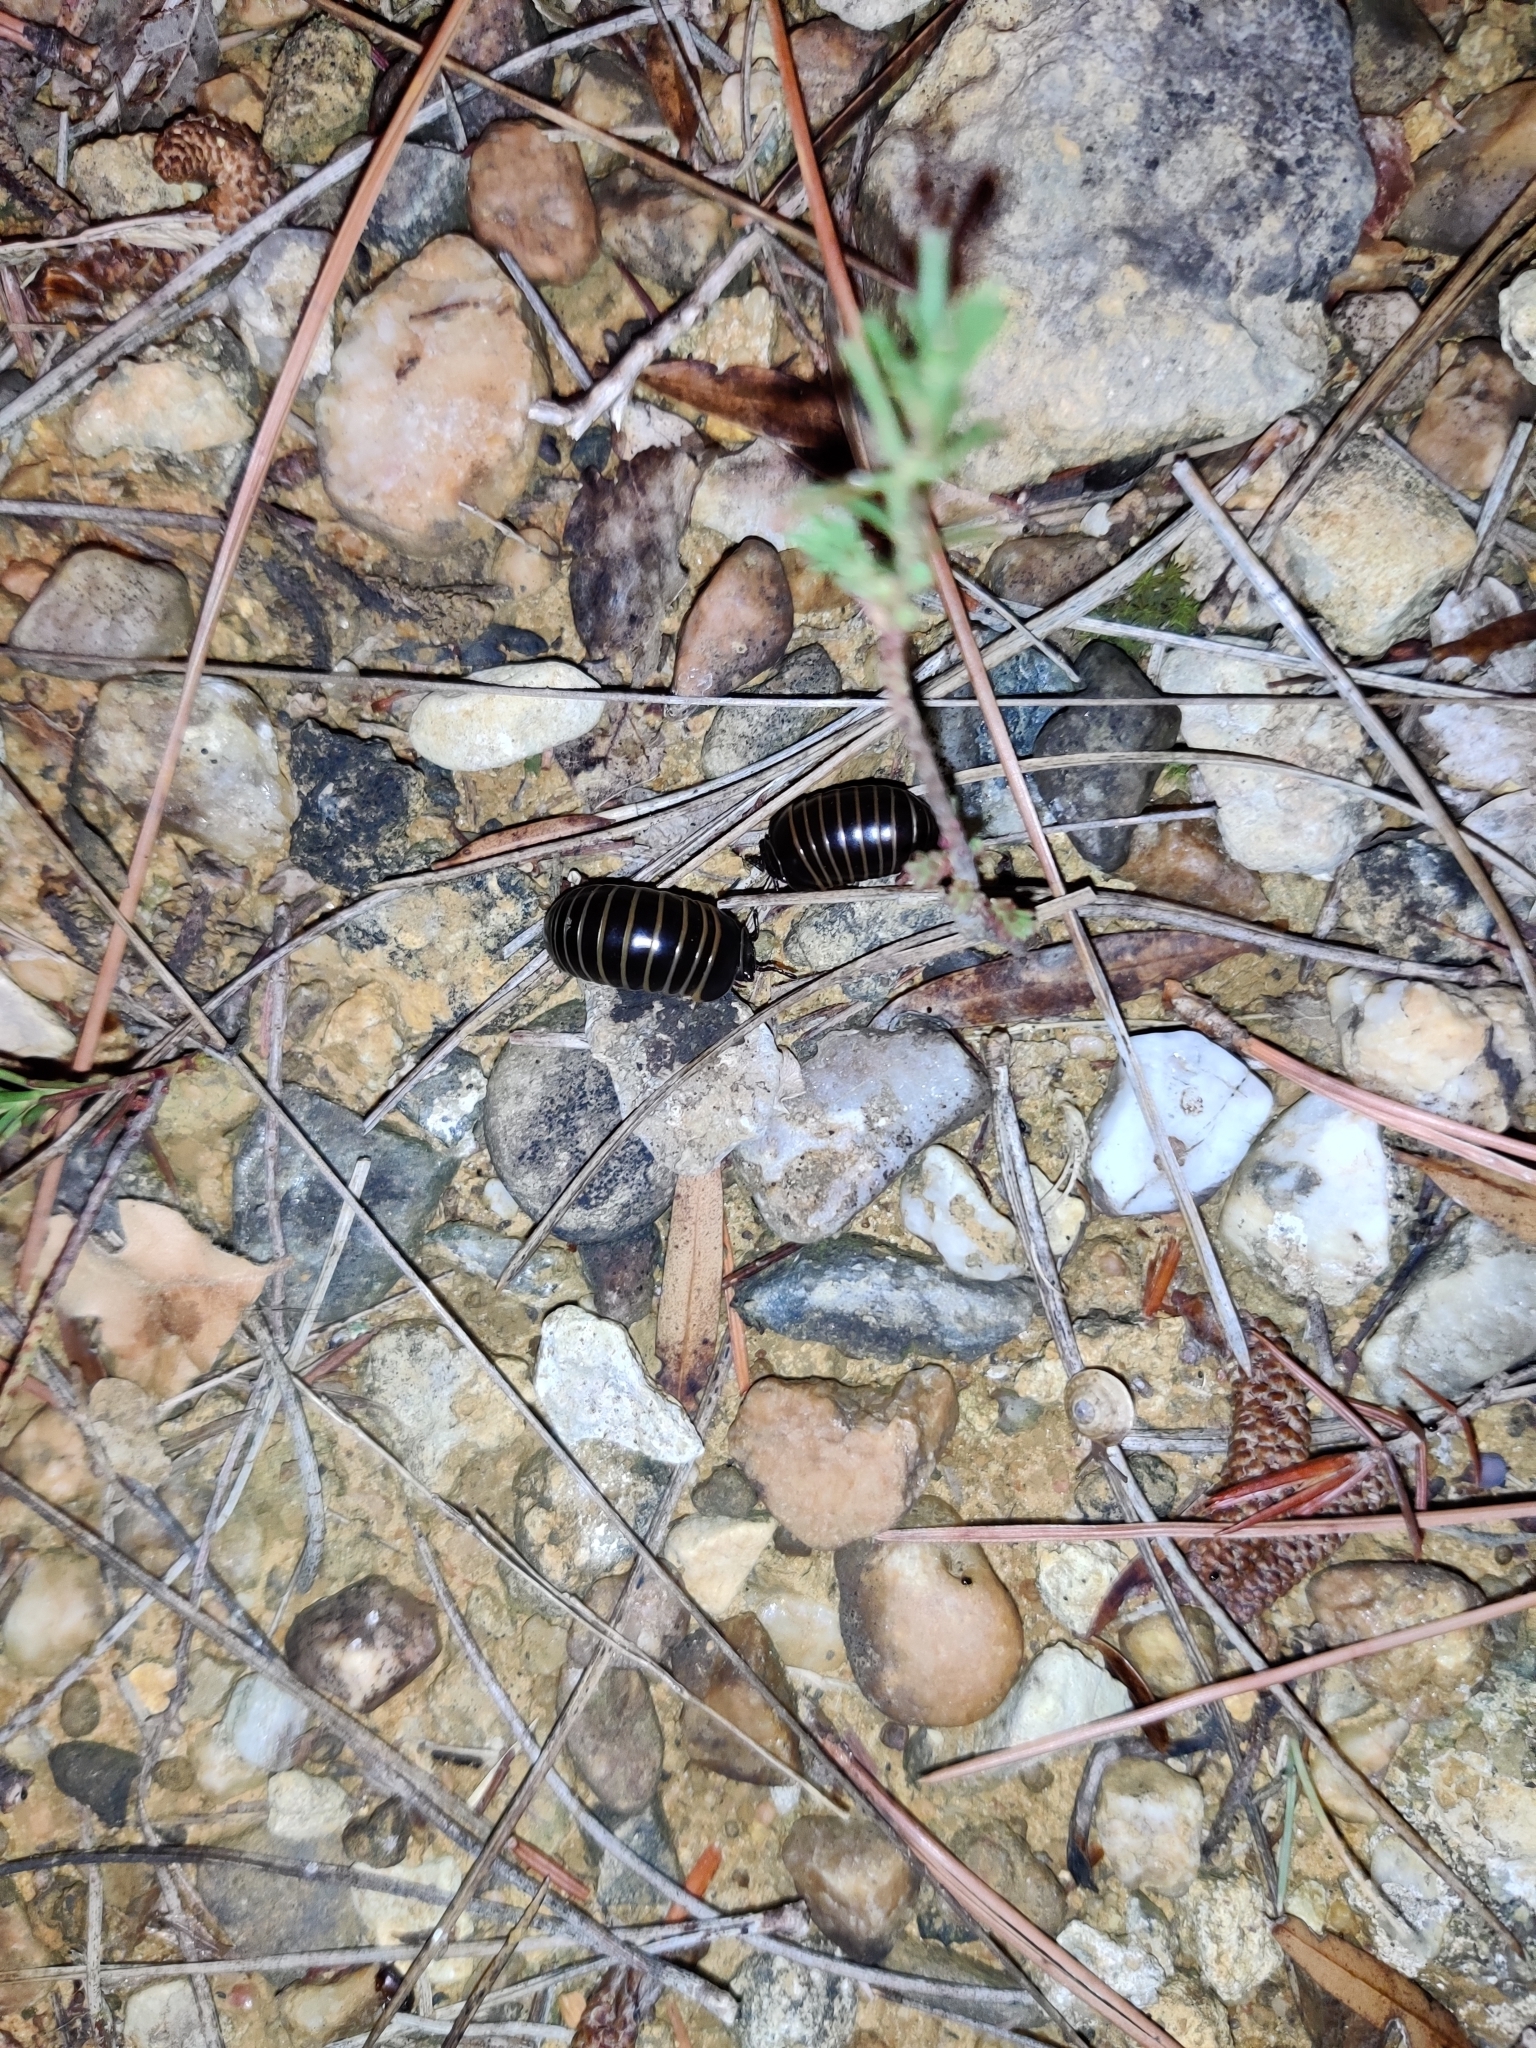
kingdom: Animalia
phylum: Arthropoda
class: Diplopoda
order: Glomerida
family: Glomeridae
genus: Glomeris
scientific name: Glomeris marginata
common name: Bordered pill millipede
